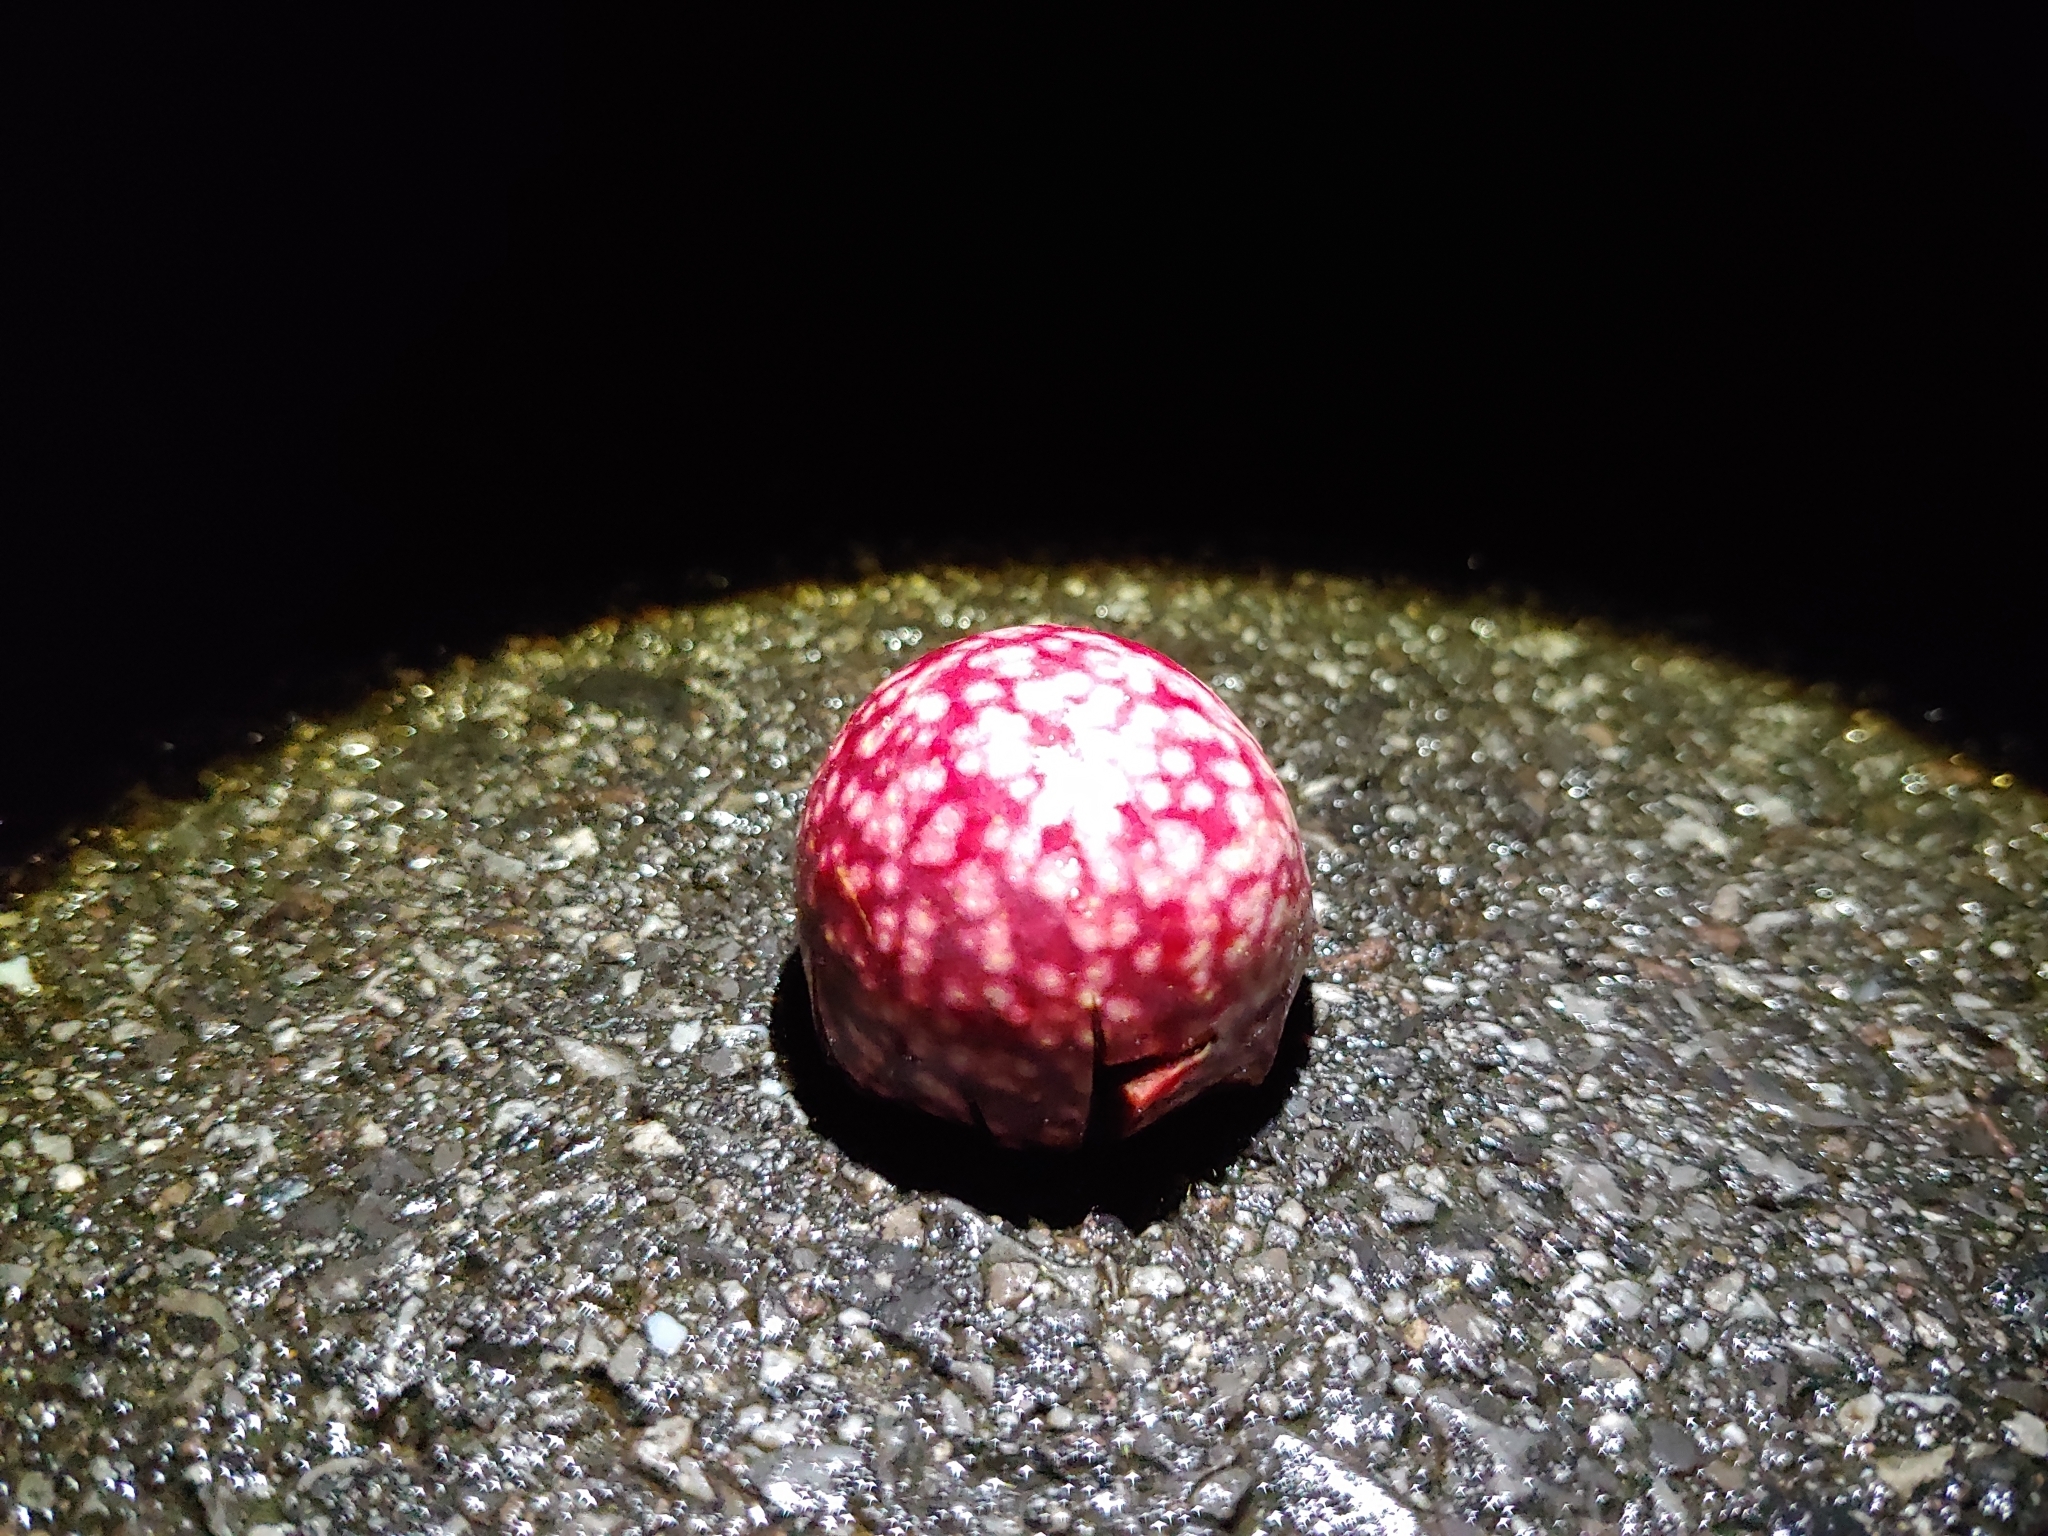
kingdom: Animalia
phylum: Arthropoda
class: Insecta
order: Hymenoptera
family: Cynipidae
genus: Amphibolips
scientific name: Amphibolips
